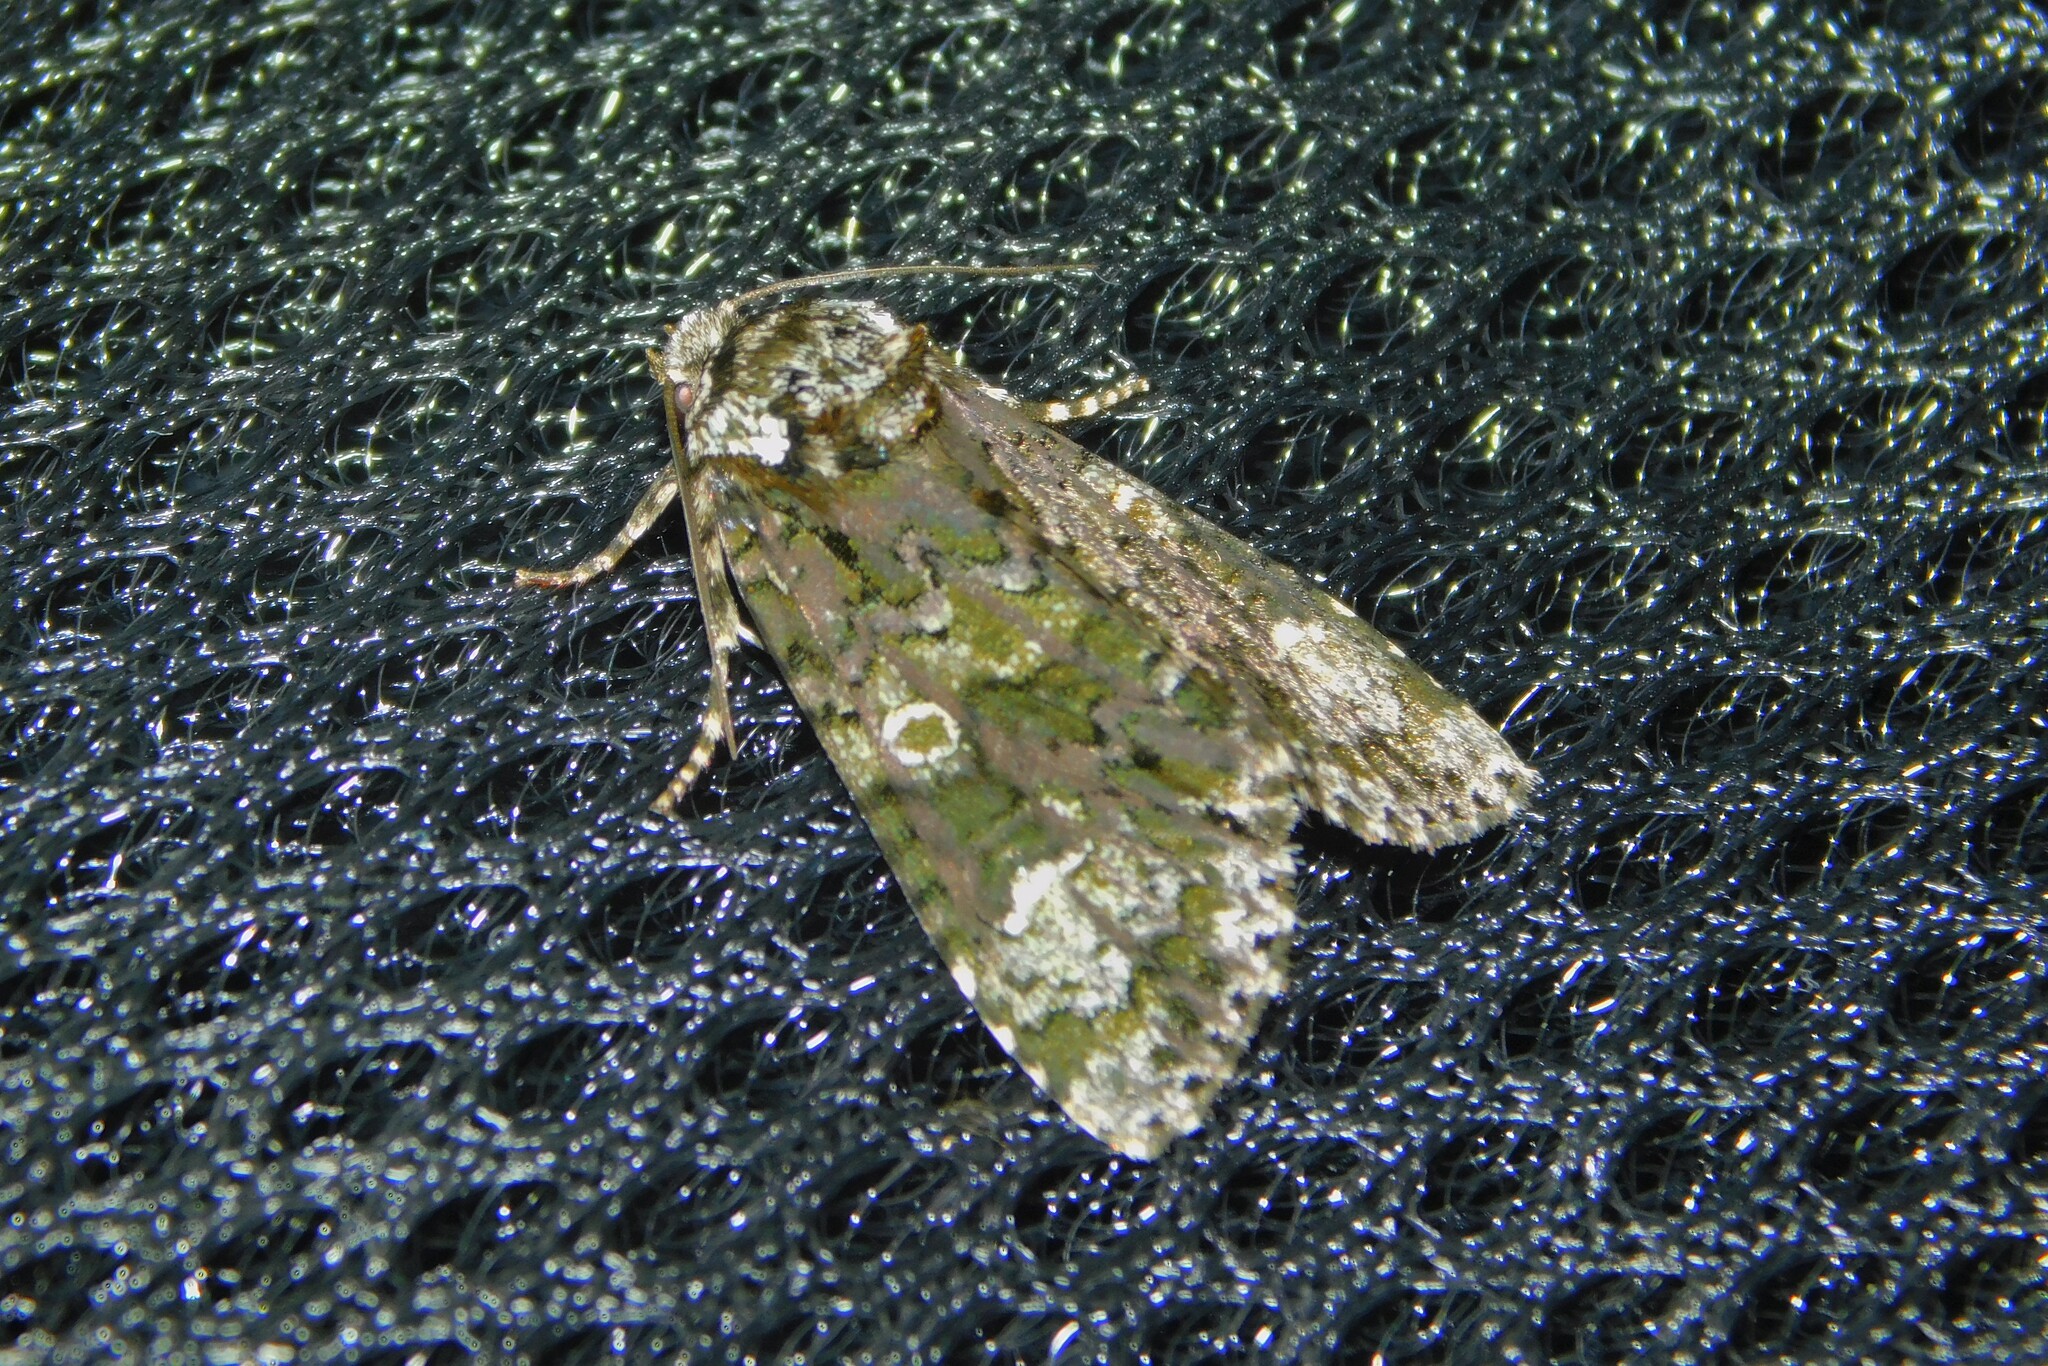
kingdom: Animalia
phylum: Arthropoda
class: Insecta
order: Lepidoptera
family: Noctuidae
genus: Craniophora
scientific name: Craniophora ligustri
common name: Coronet
